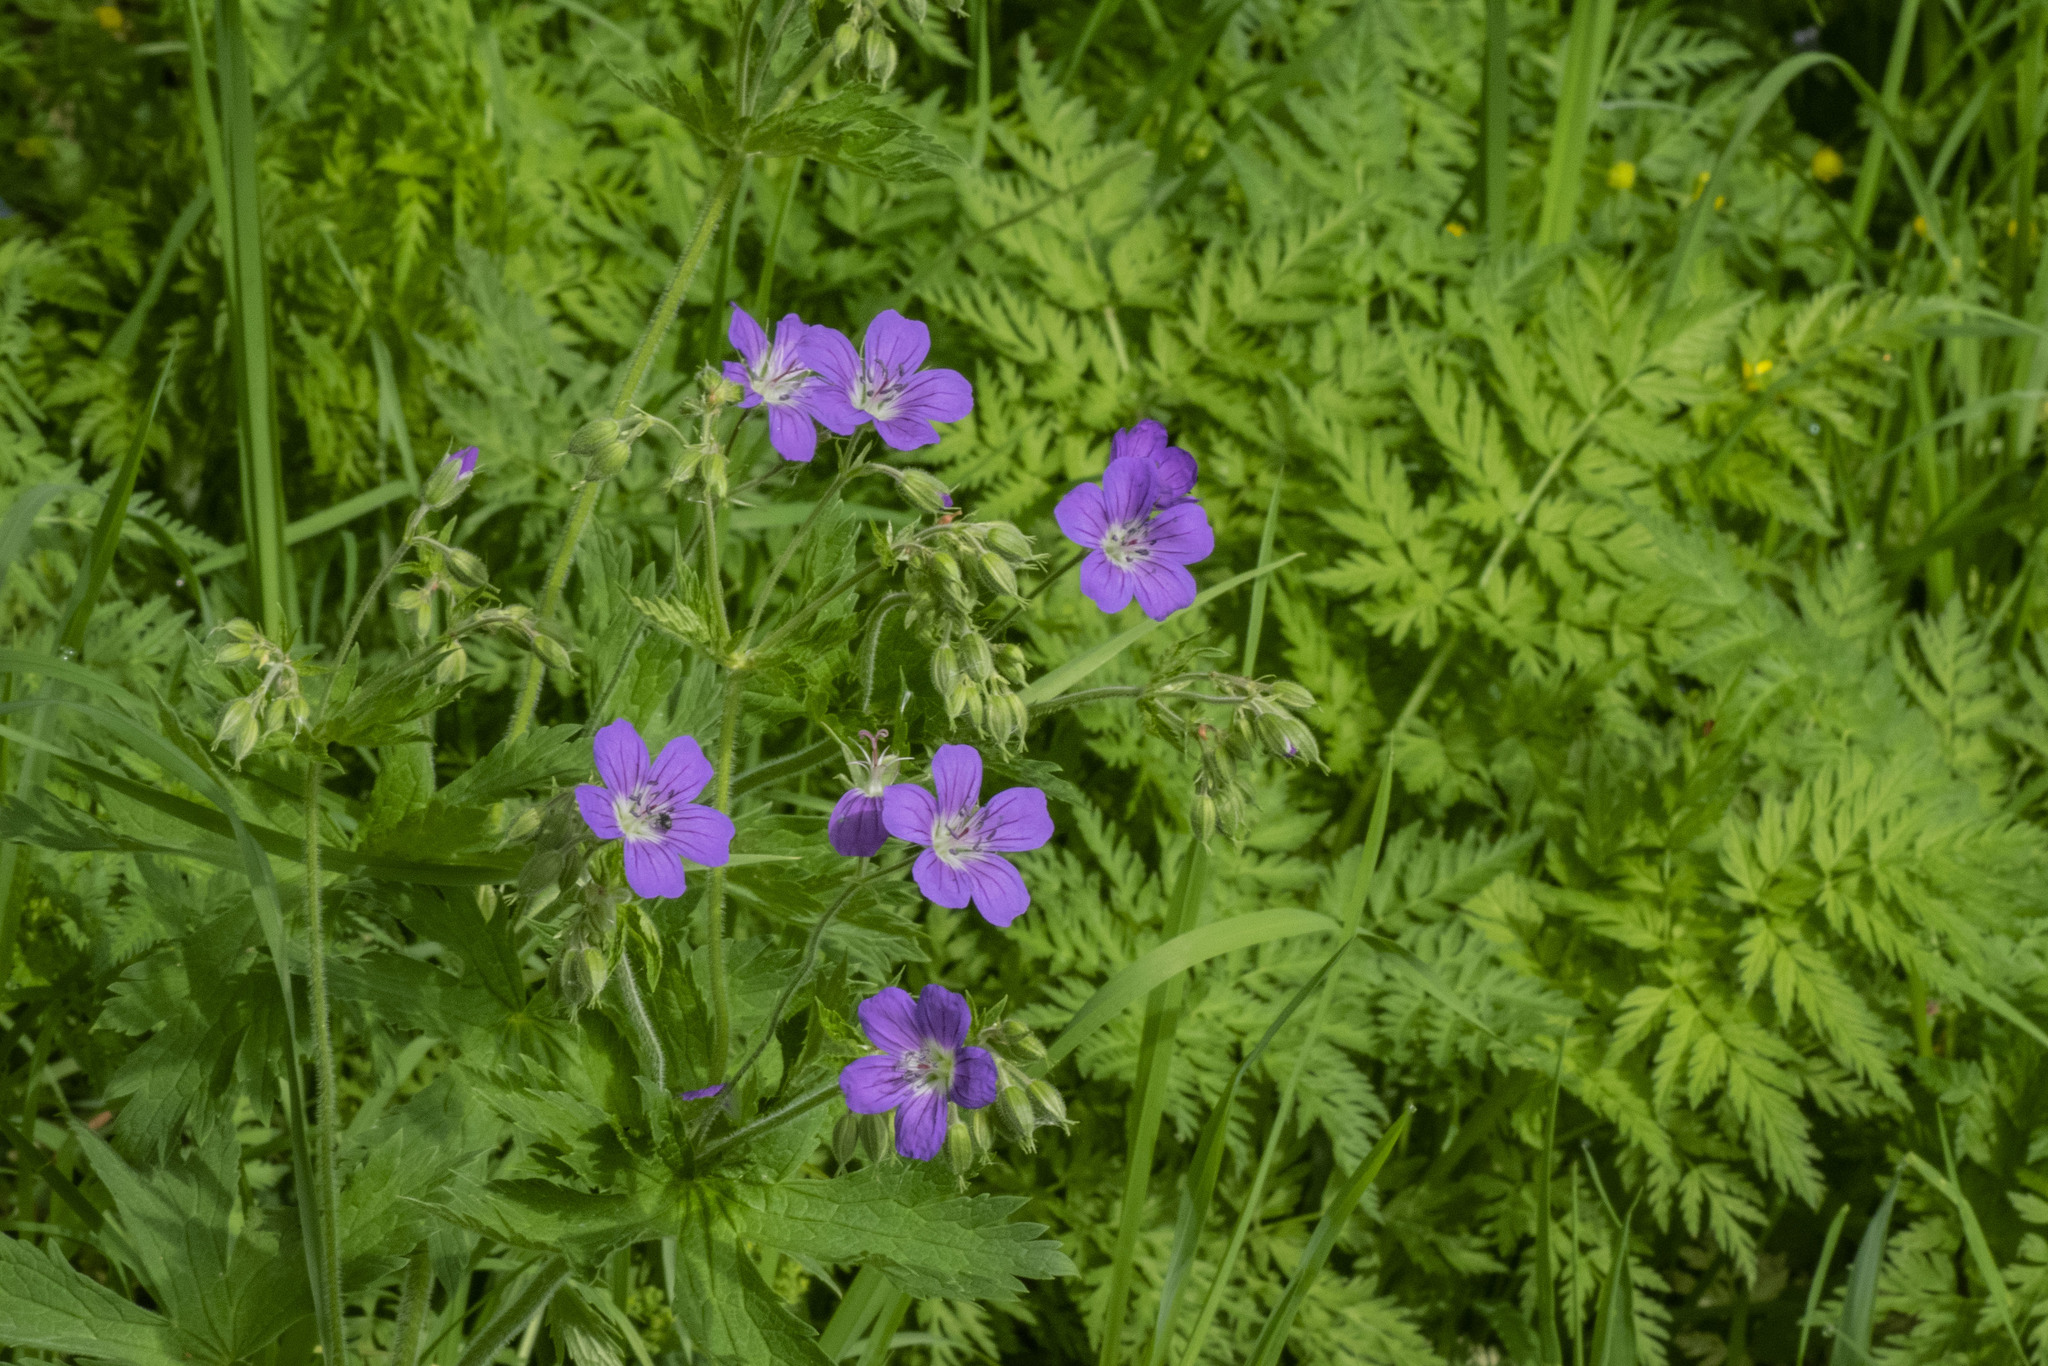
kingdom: Plantae
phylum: Tracheophyta
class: Magnoliopsida
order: Geraniales
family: Geraniaceae
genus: Geranium
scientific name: Geranium sylvaticum
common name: Wood crane's-bill
